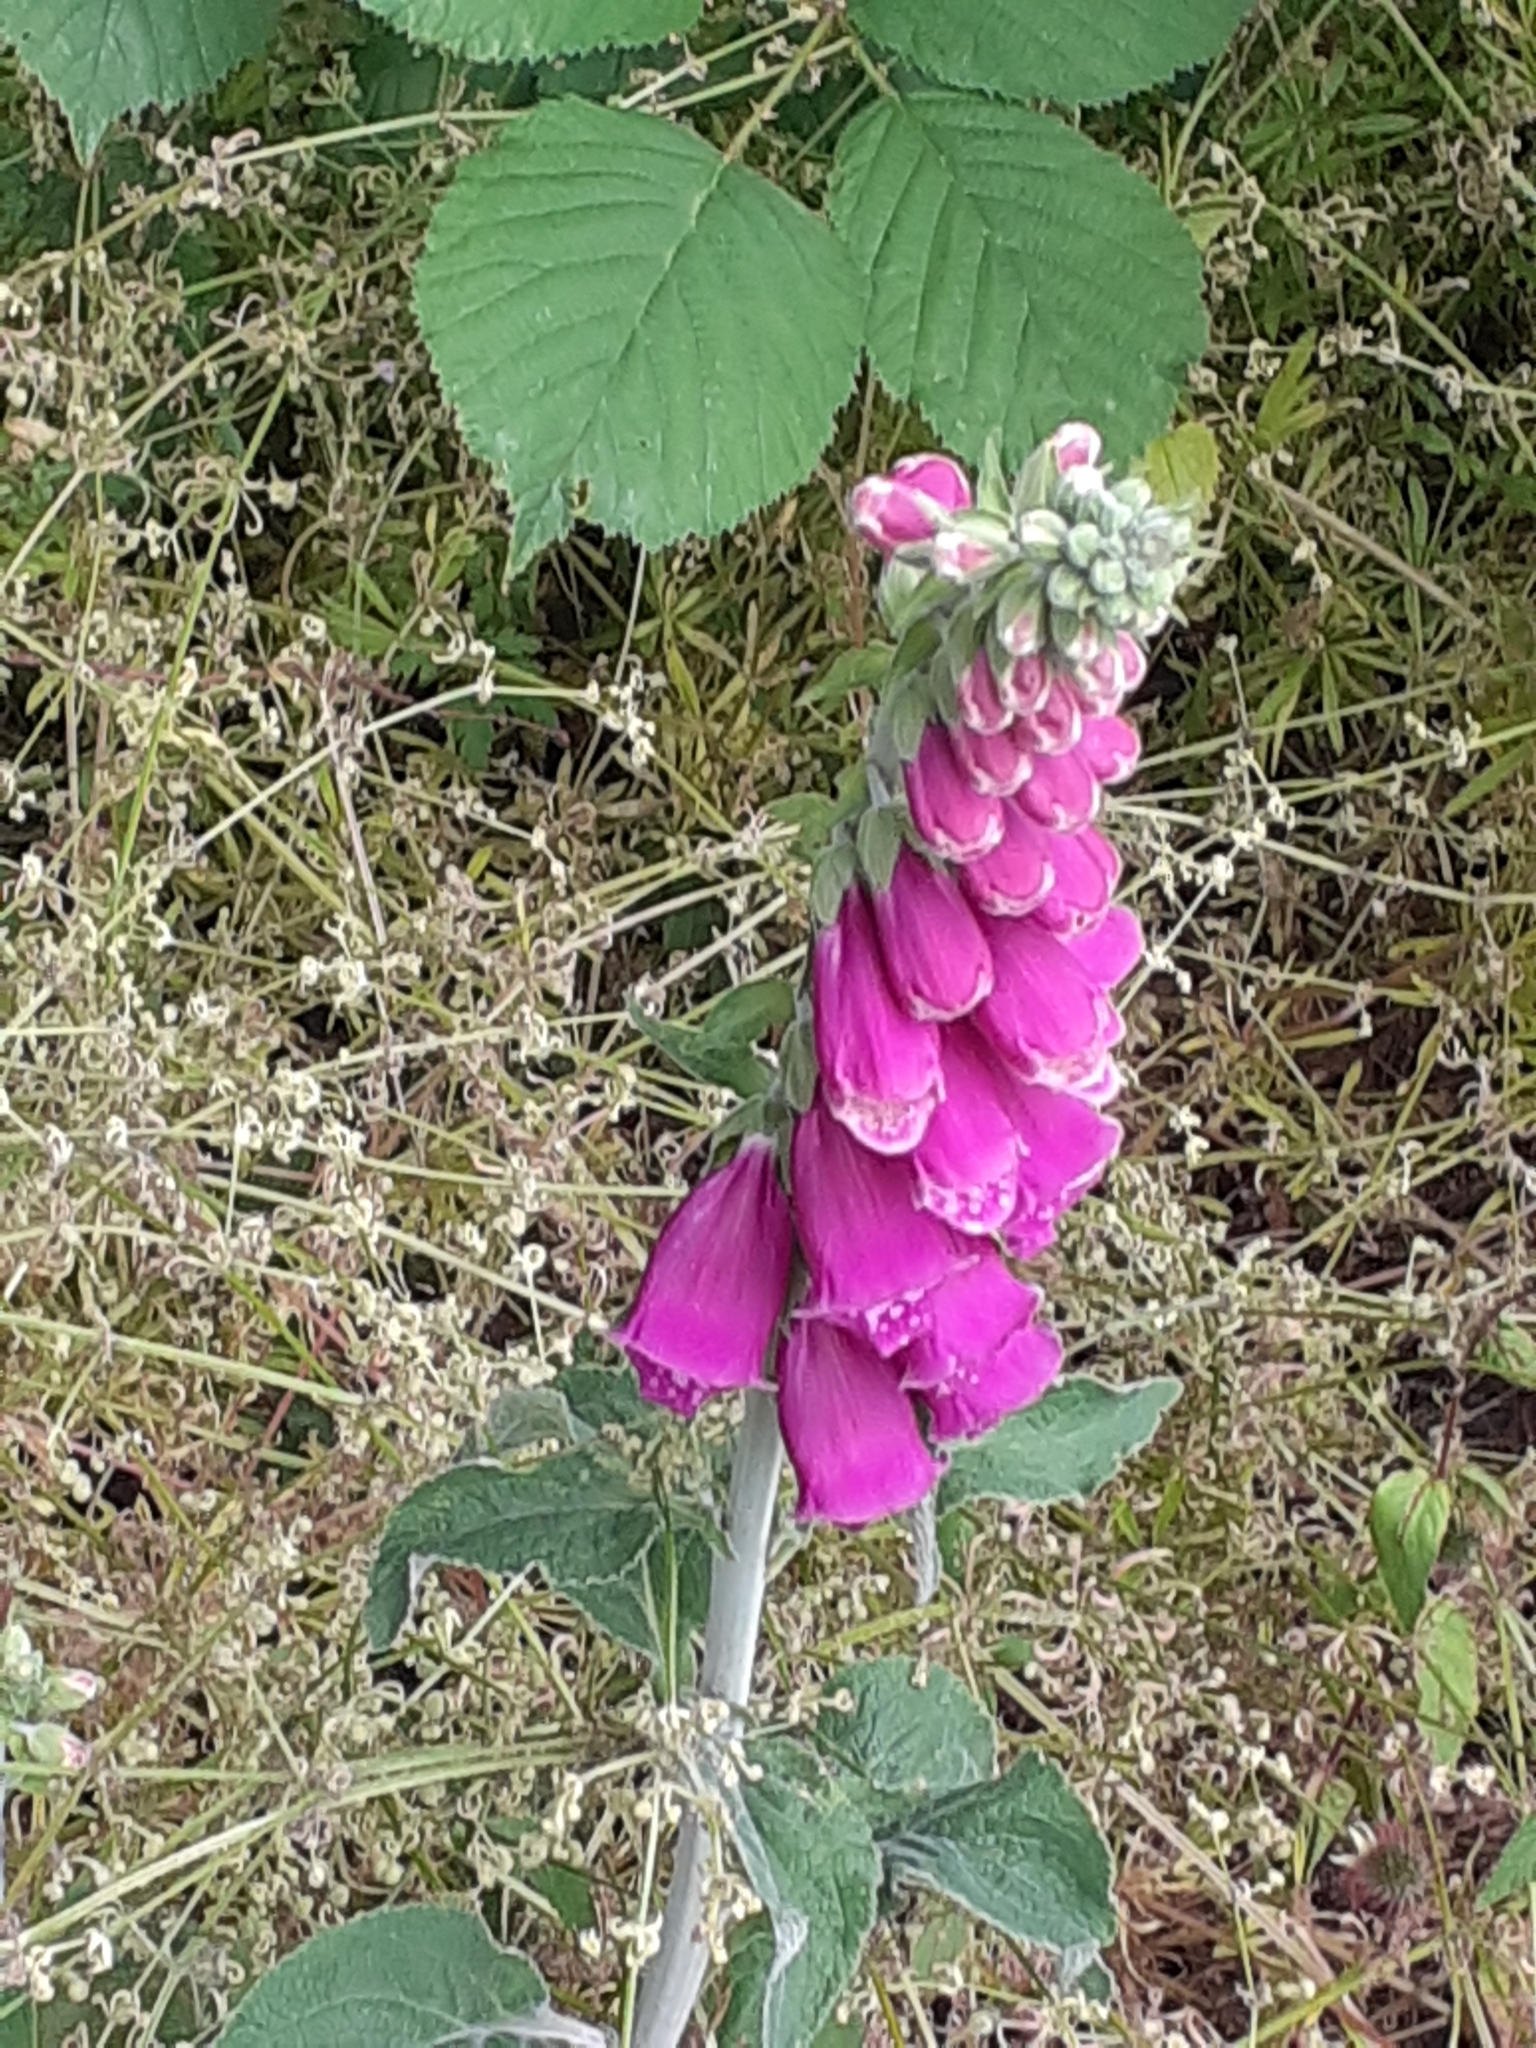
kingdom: Plantae
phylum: Tracheophyta
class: Magnoliopsida
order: Lamiales
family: Plantaginaceae
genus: Digitalis
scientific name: Digitalis purpurea
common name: Foxglove
